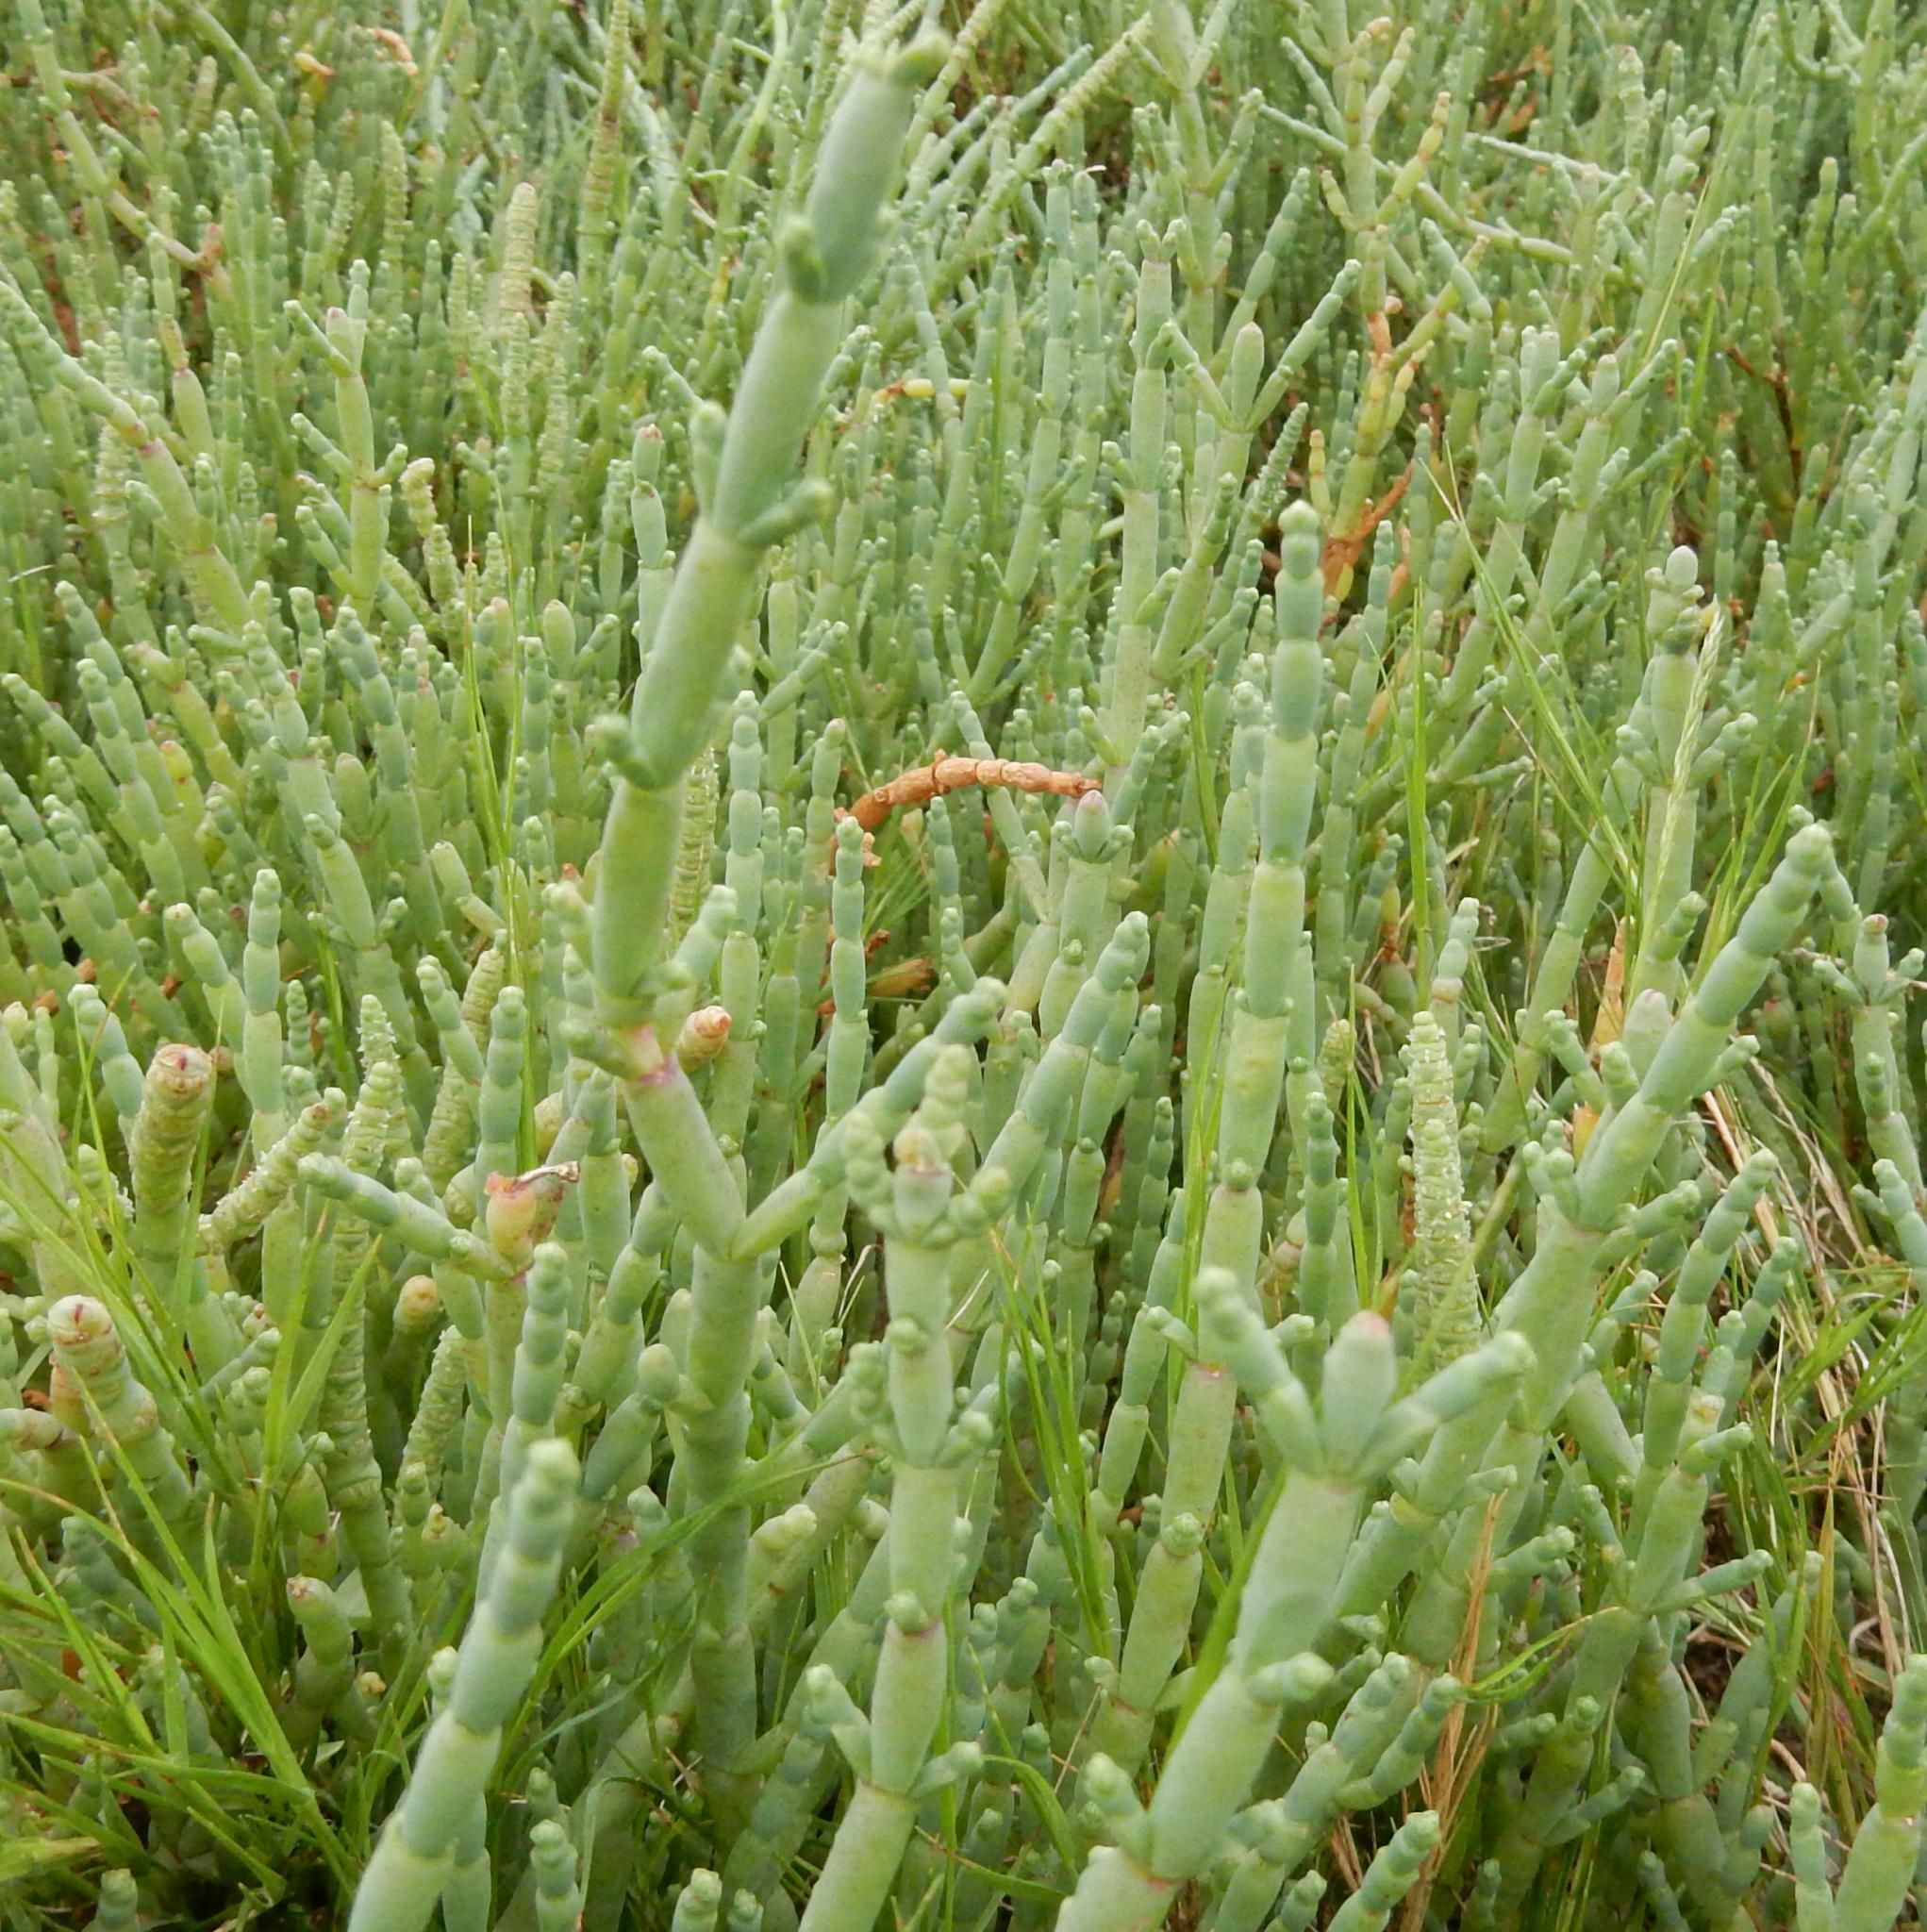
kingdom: Plantae
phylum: Tracheophyta
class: Magnoliopsida
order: Caryophyllales
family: Amaranthaceae
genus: Salicornia
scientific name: Salicornia decumbens
